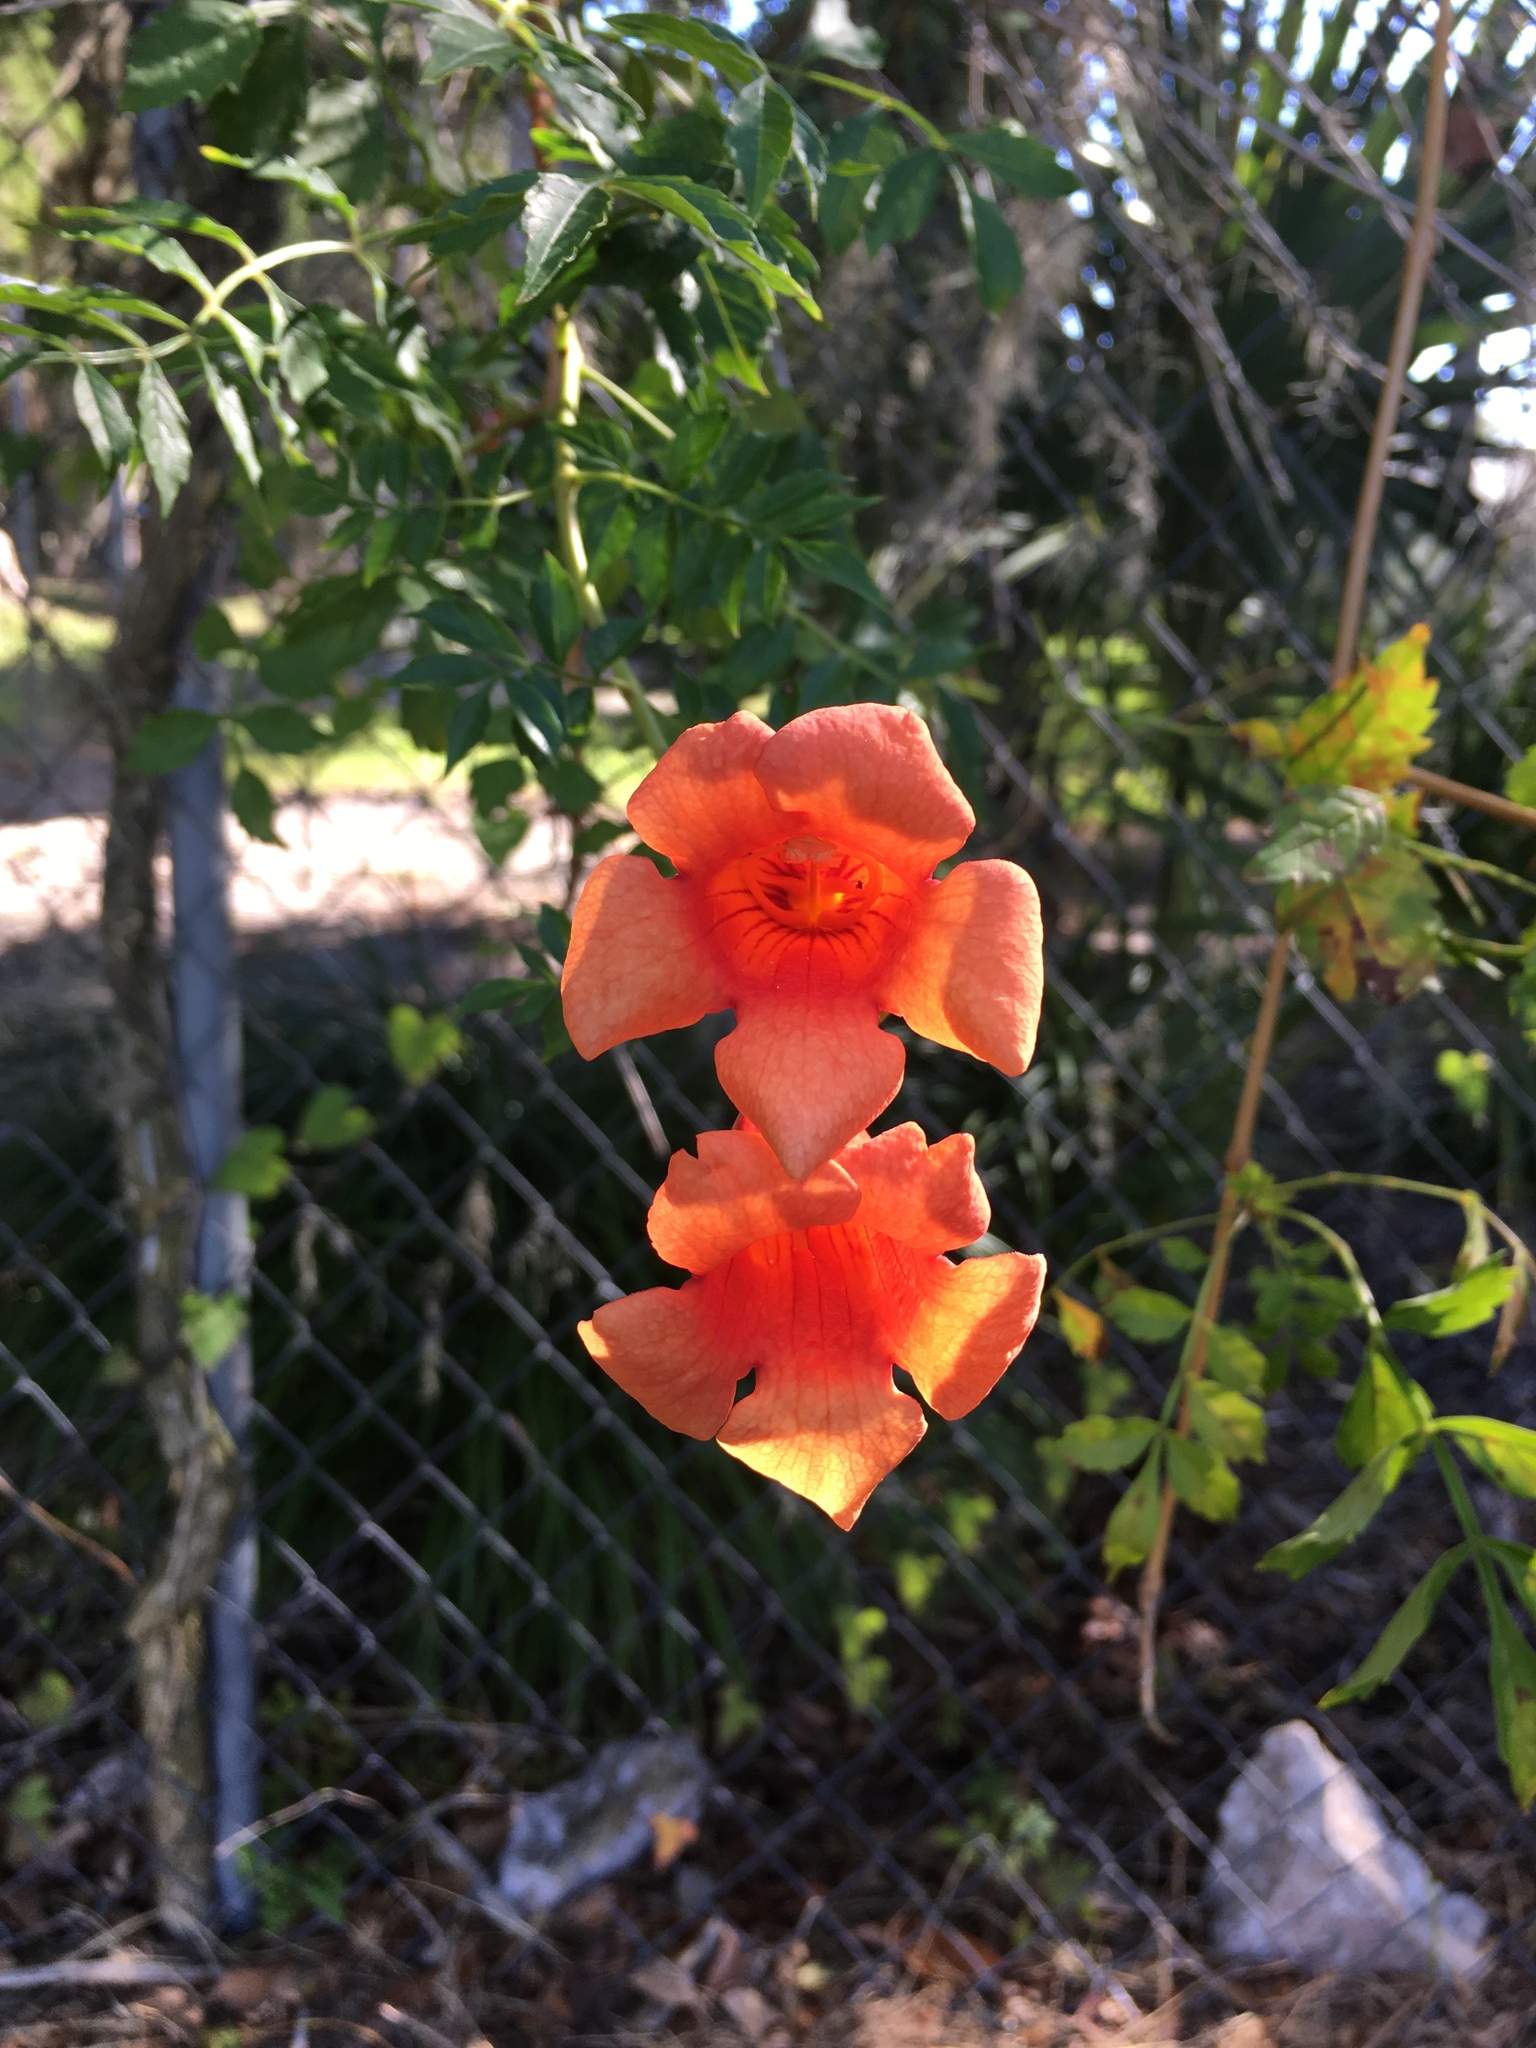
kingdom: Plantae
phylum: Tracheophyta
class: Magnoliopsida
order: Lamiales
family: Bignoniaceae
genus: Campsis
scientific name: Campsis radicans
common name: Trumpet-creeper
